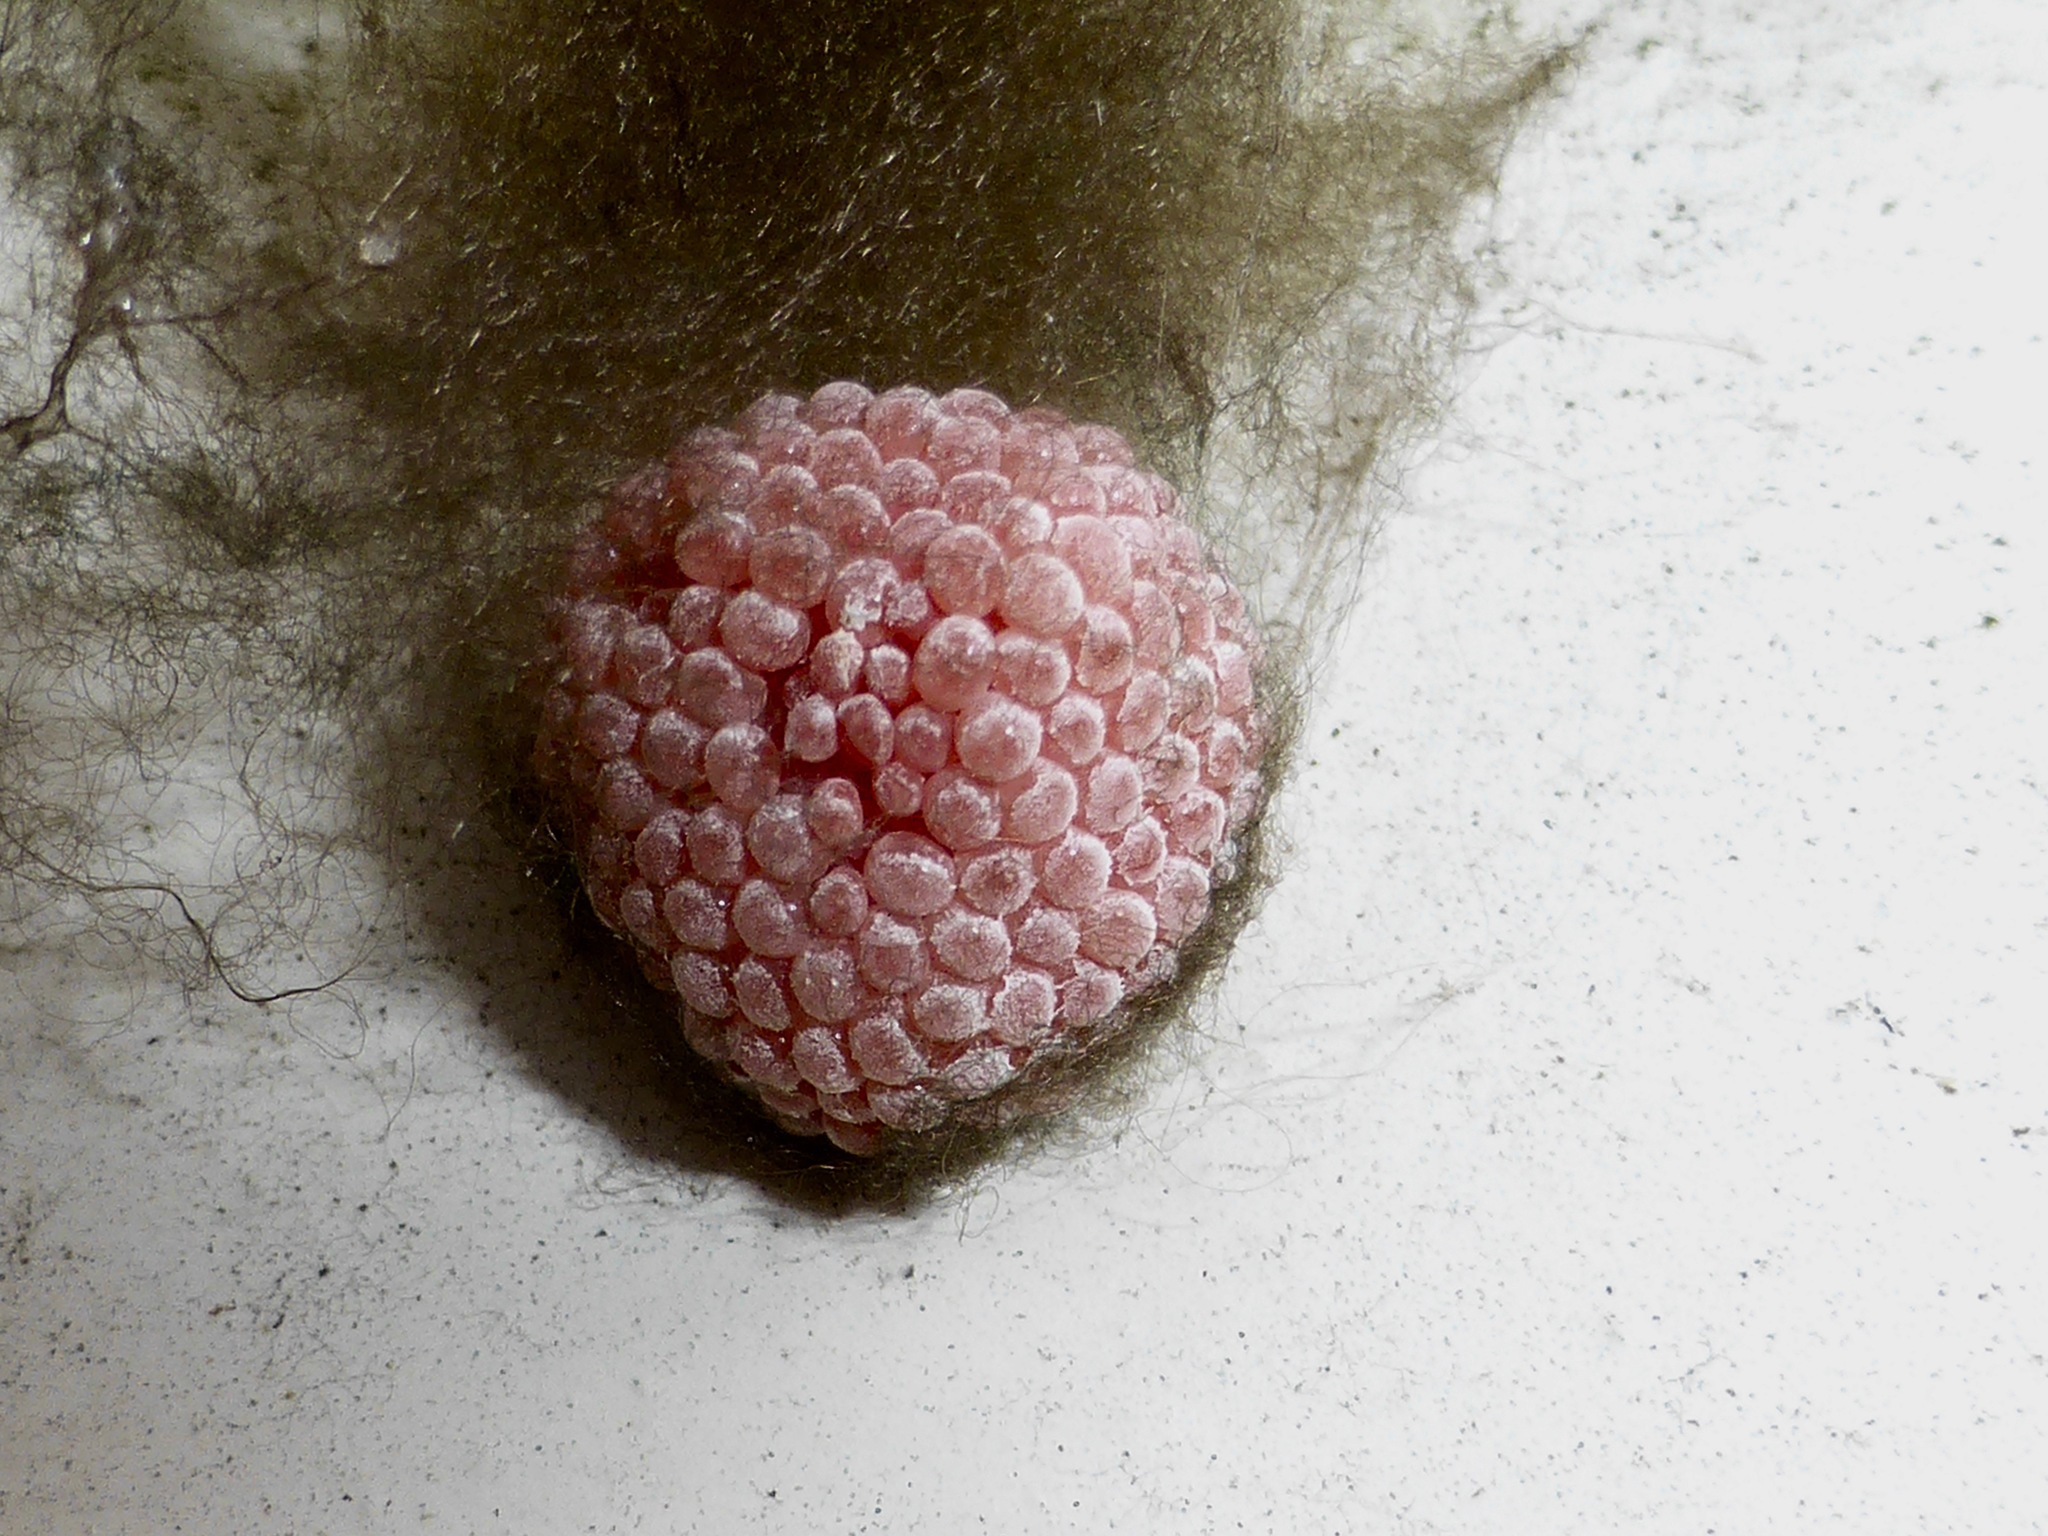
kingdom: Animalia
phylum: Arthropoda
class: Arachnida
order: Araneae
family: Araneidae
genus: Eriophora
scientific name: Eriophora pustulosa
